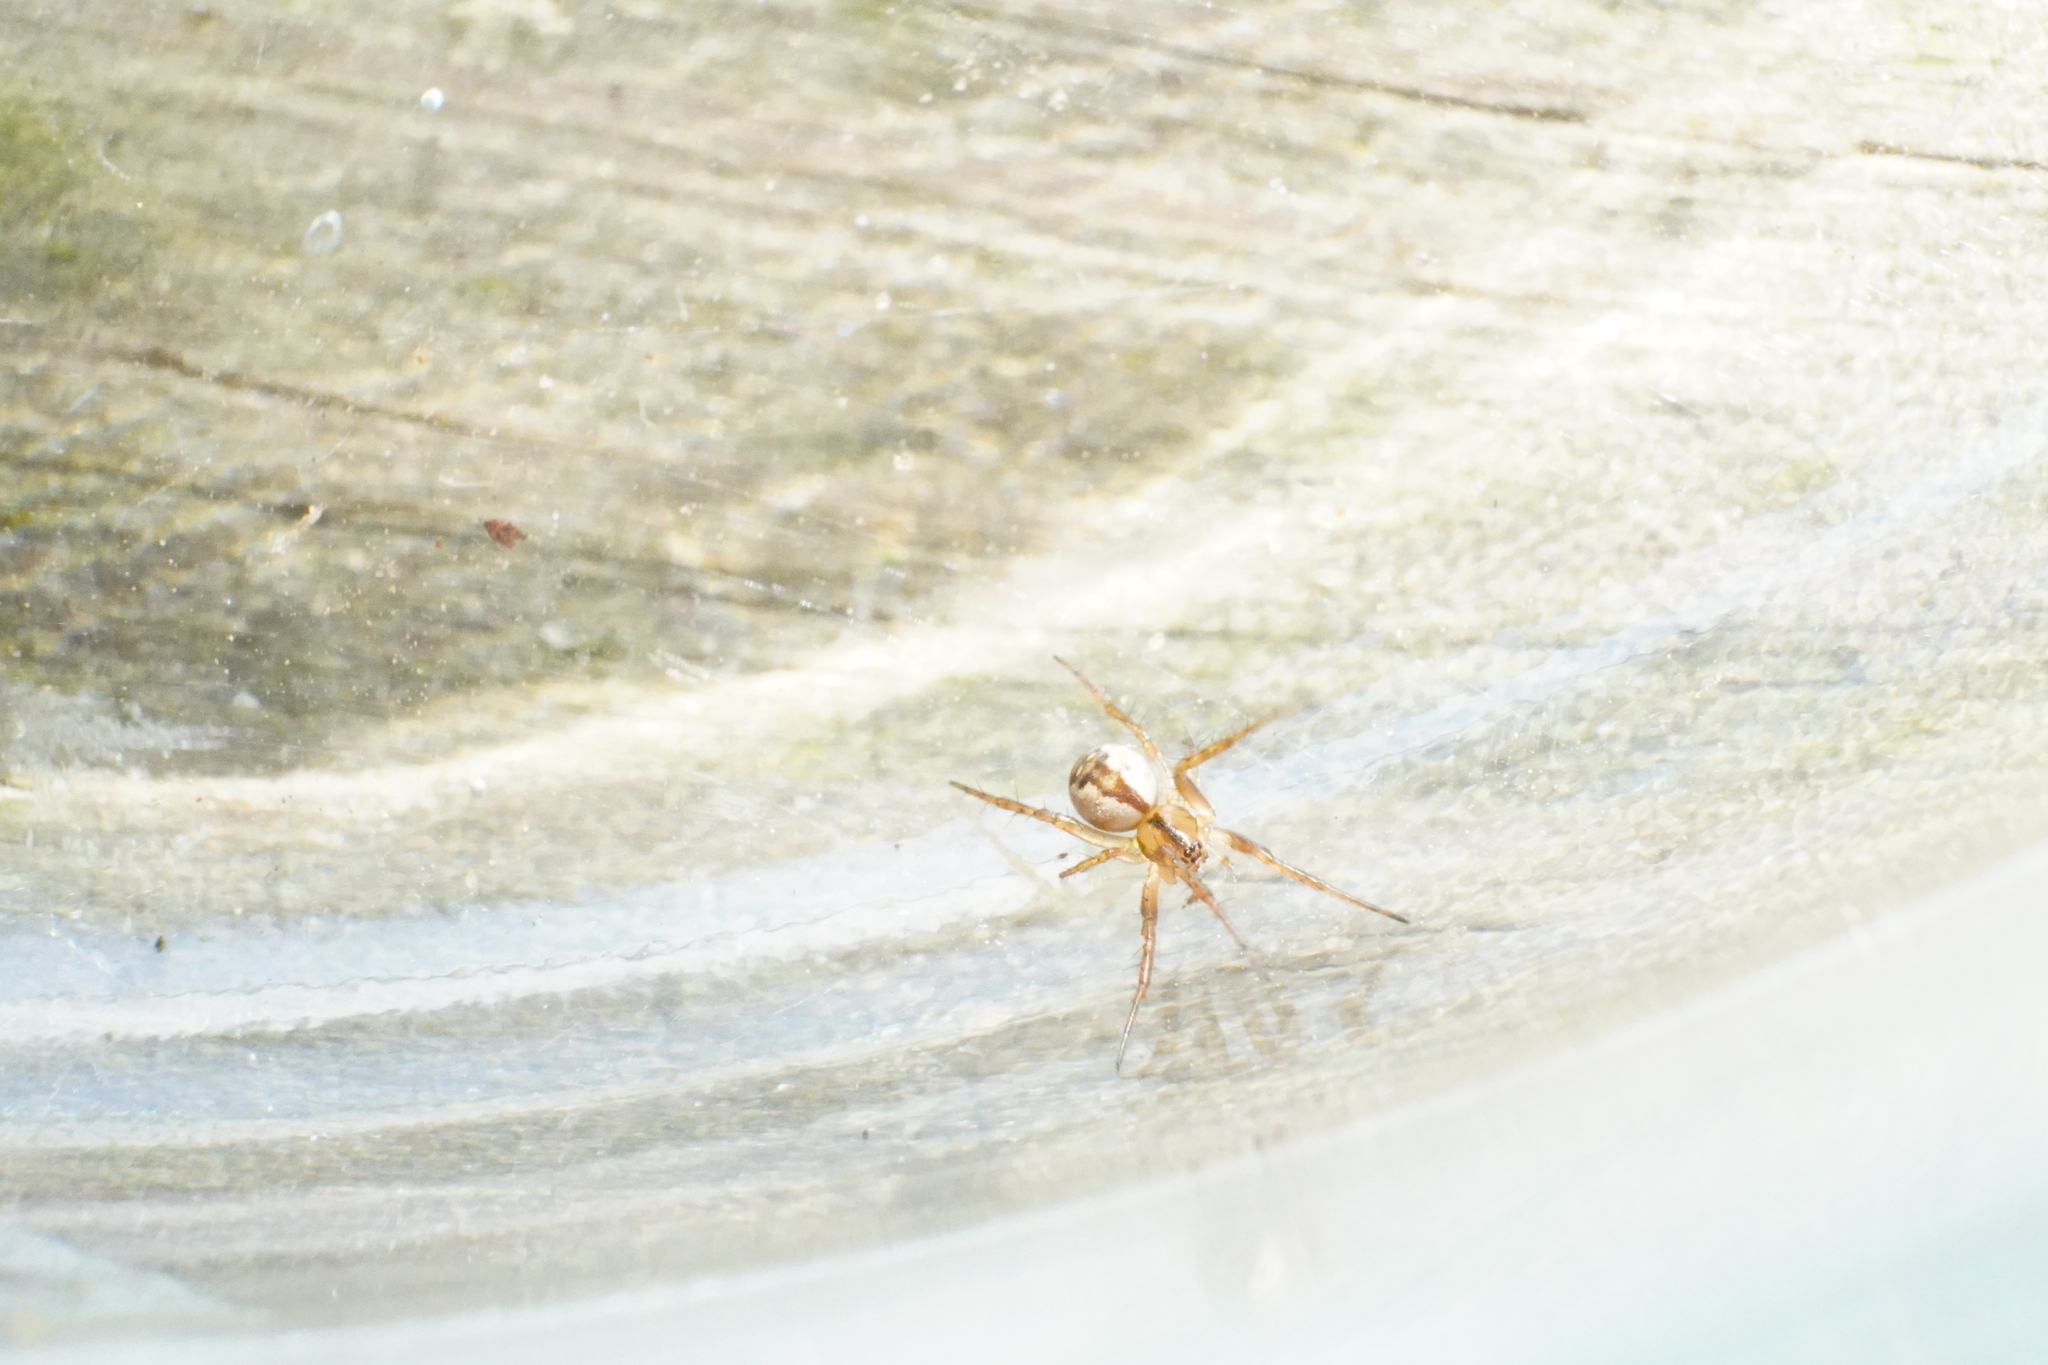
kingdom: Animalia
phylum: Arthropoda
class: Arachnida
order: Araneae
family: Araneidae
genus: Mangora
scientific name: Mangora placida
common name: Tuft-legged orbweaver
